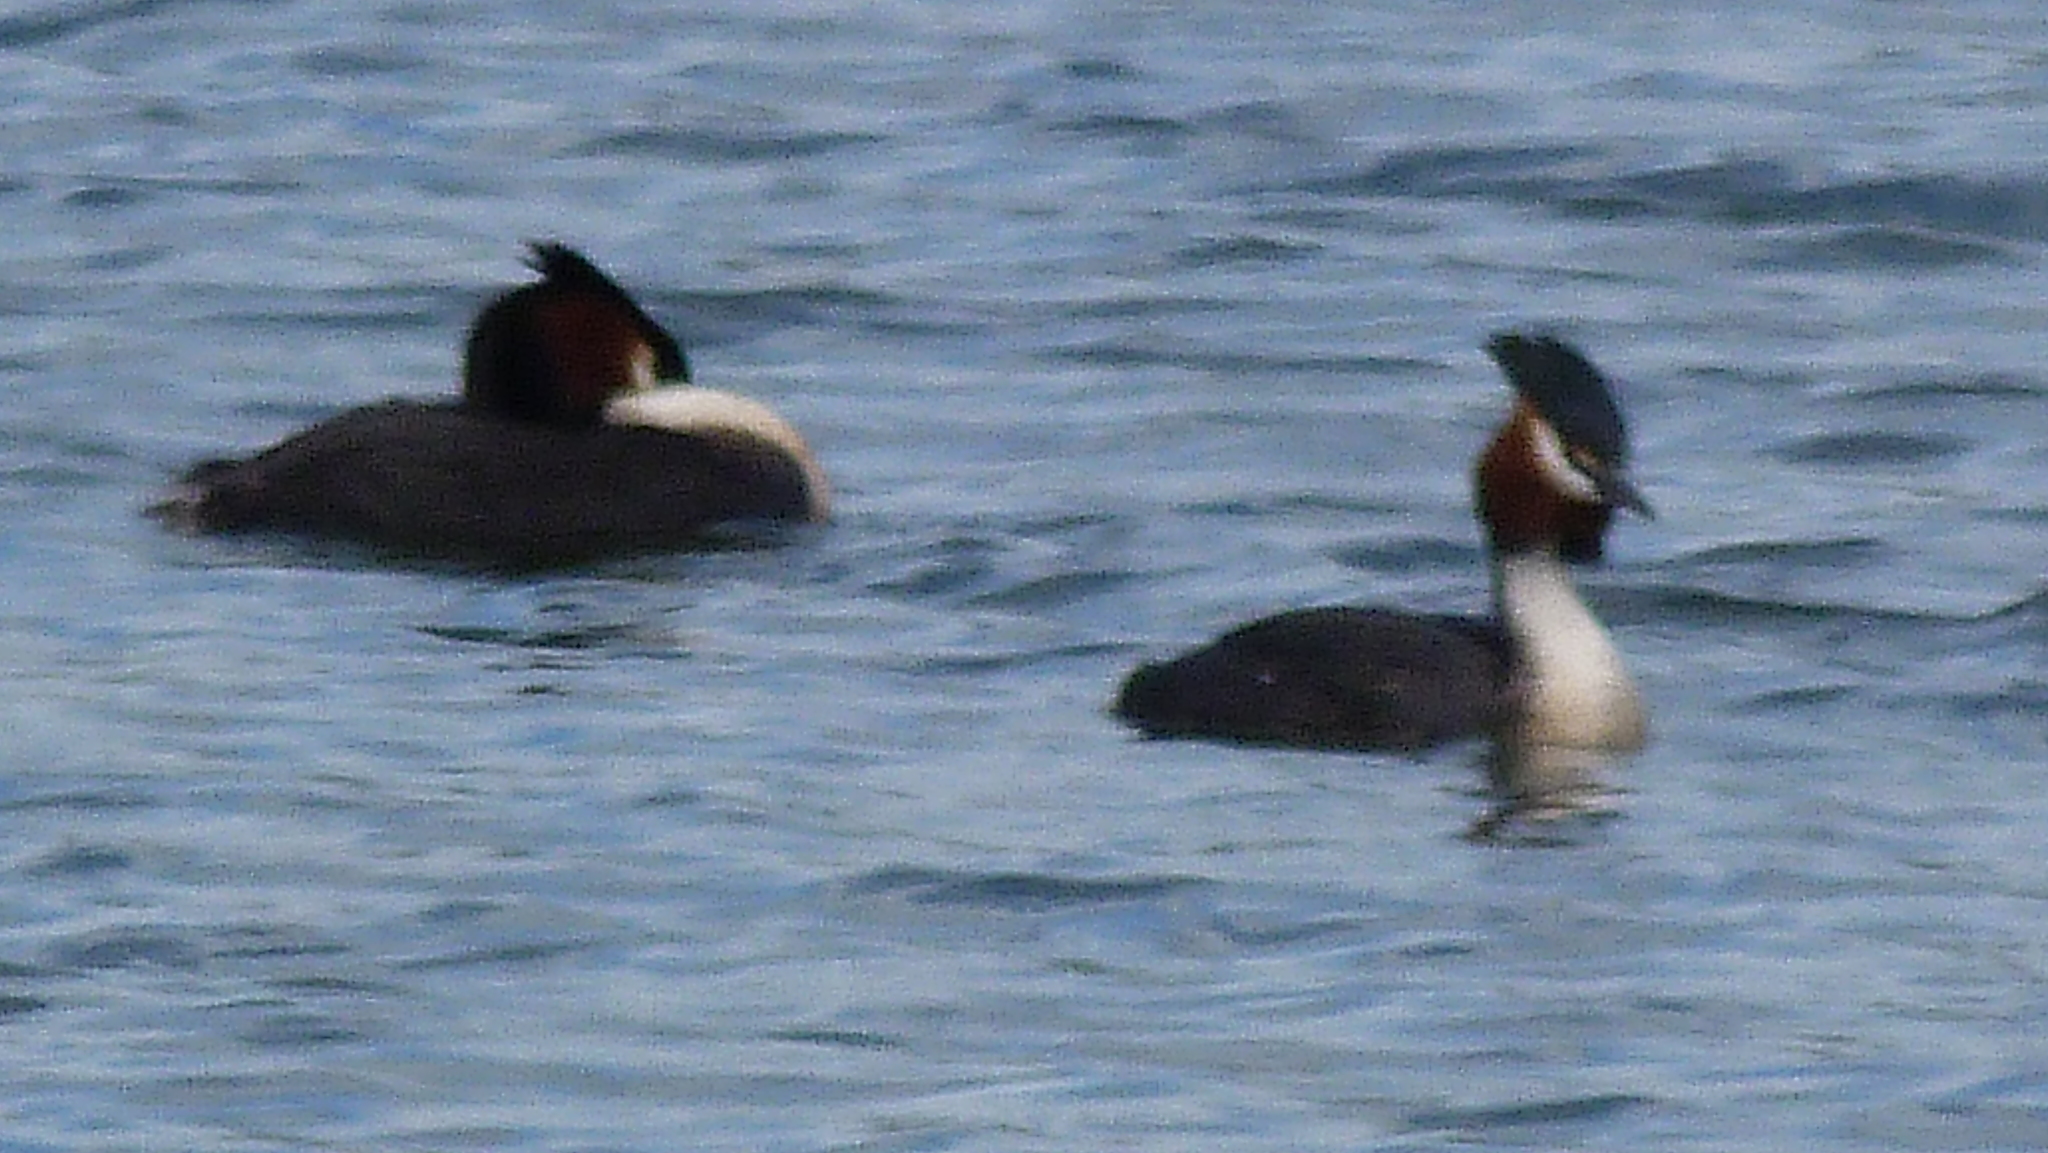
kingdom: Animalia
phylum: Chordata
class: Aves
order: Podicipediformes
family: Podicipedidae
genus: Podiceps
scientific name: Podiceps cristatus
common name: Great crested grebe
